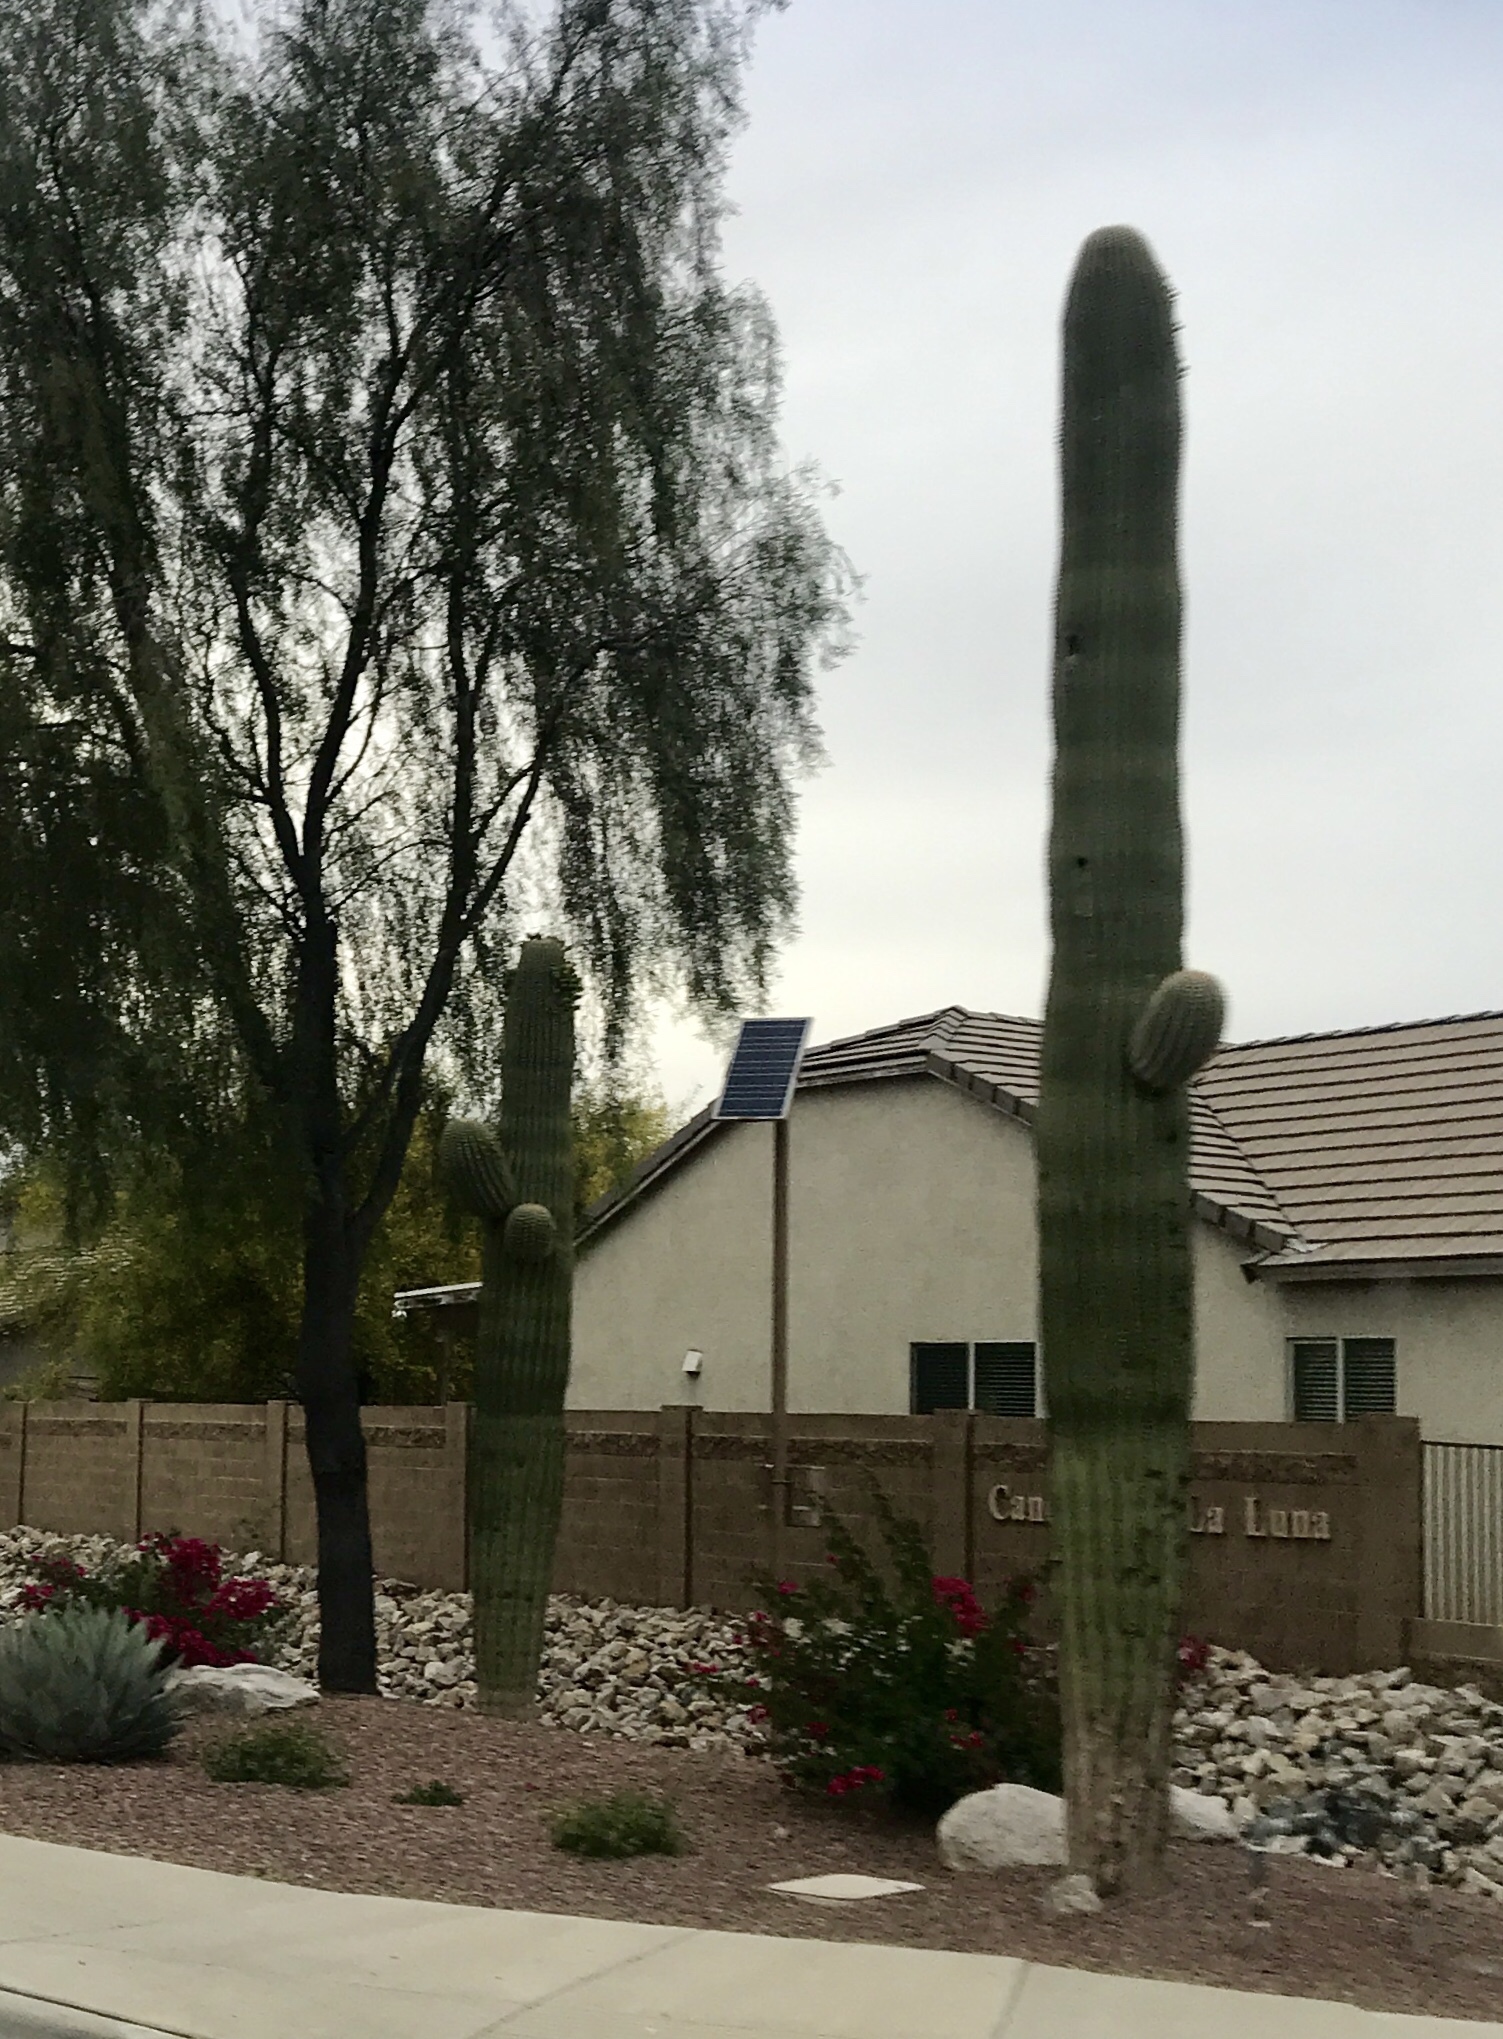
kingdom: Plantae
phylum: Tracheophyta
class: Magnoliopsida
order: Caryophyllales
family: Cactaceae
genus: Carnegiea
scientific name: Carnegiea gigantea
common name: Saguaro
